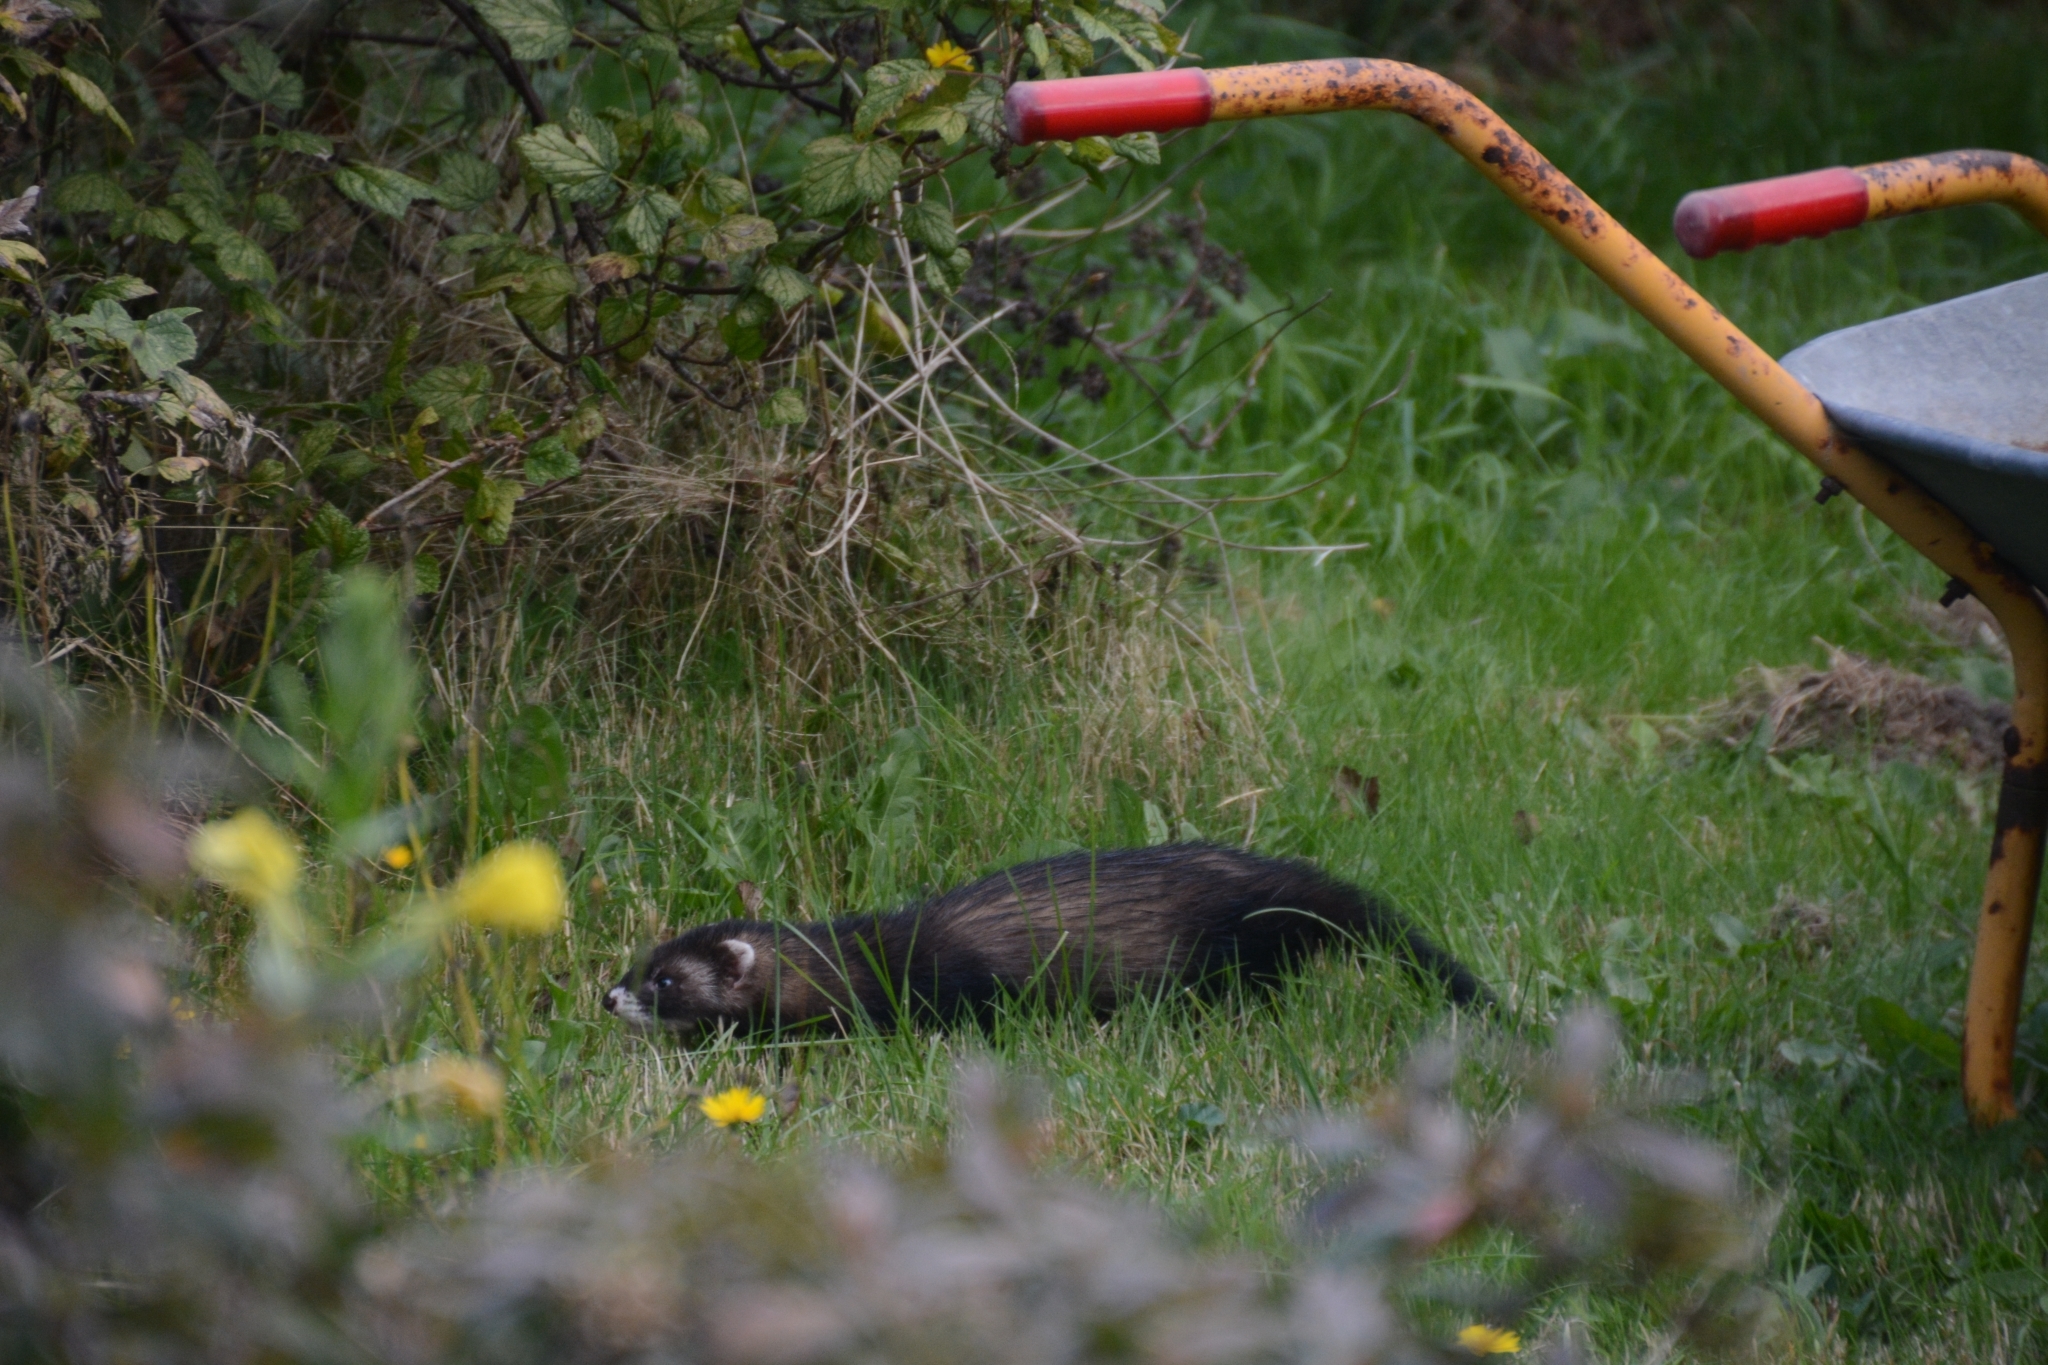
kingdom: Animalia
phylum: Chordata
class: Mammalia
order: Carnivora
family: Mustelidae
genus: Mustela
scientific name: Mustela putorius
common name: European polecat
